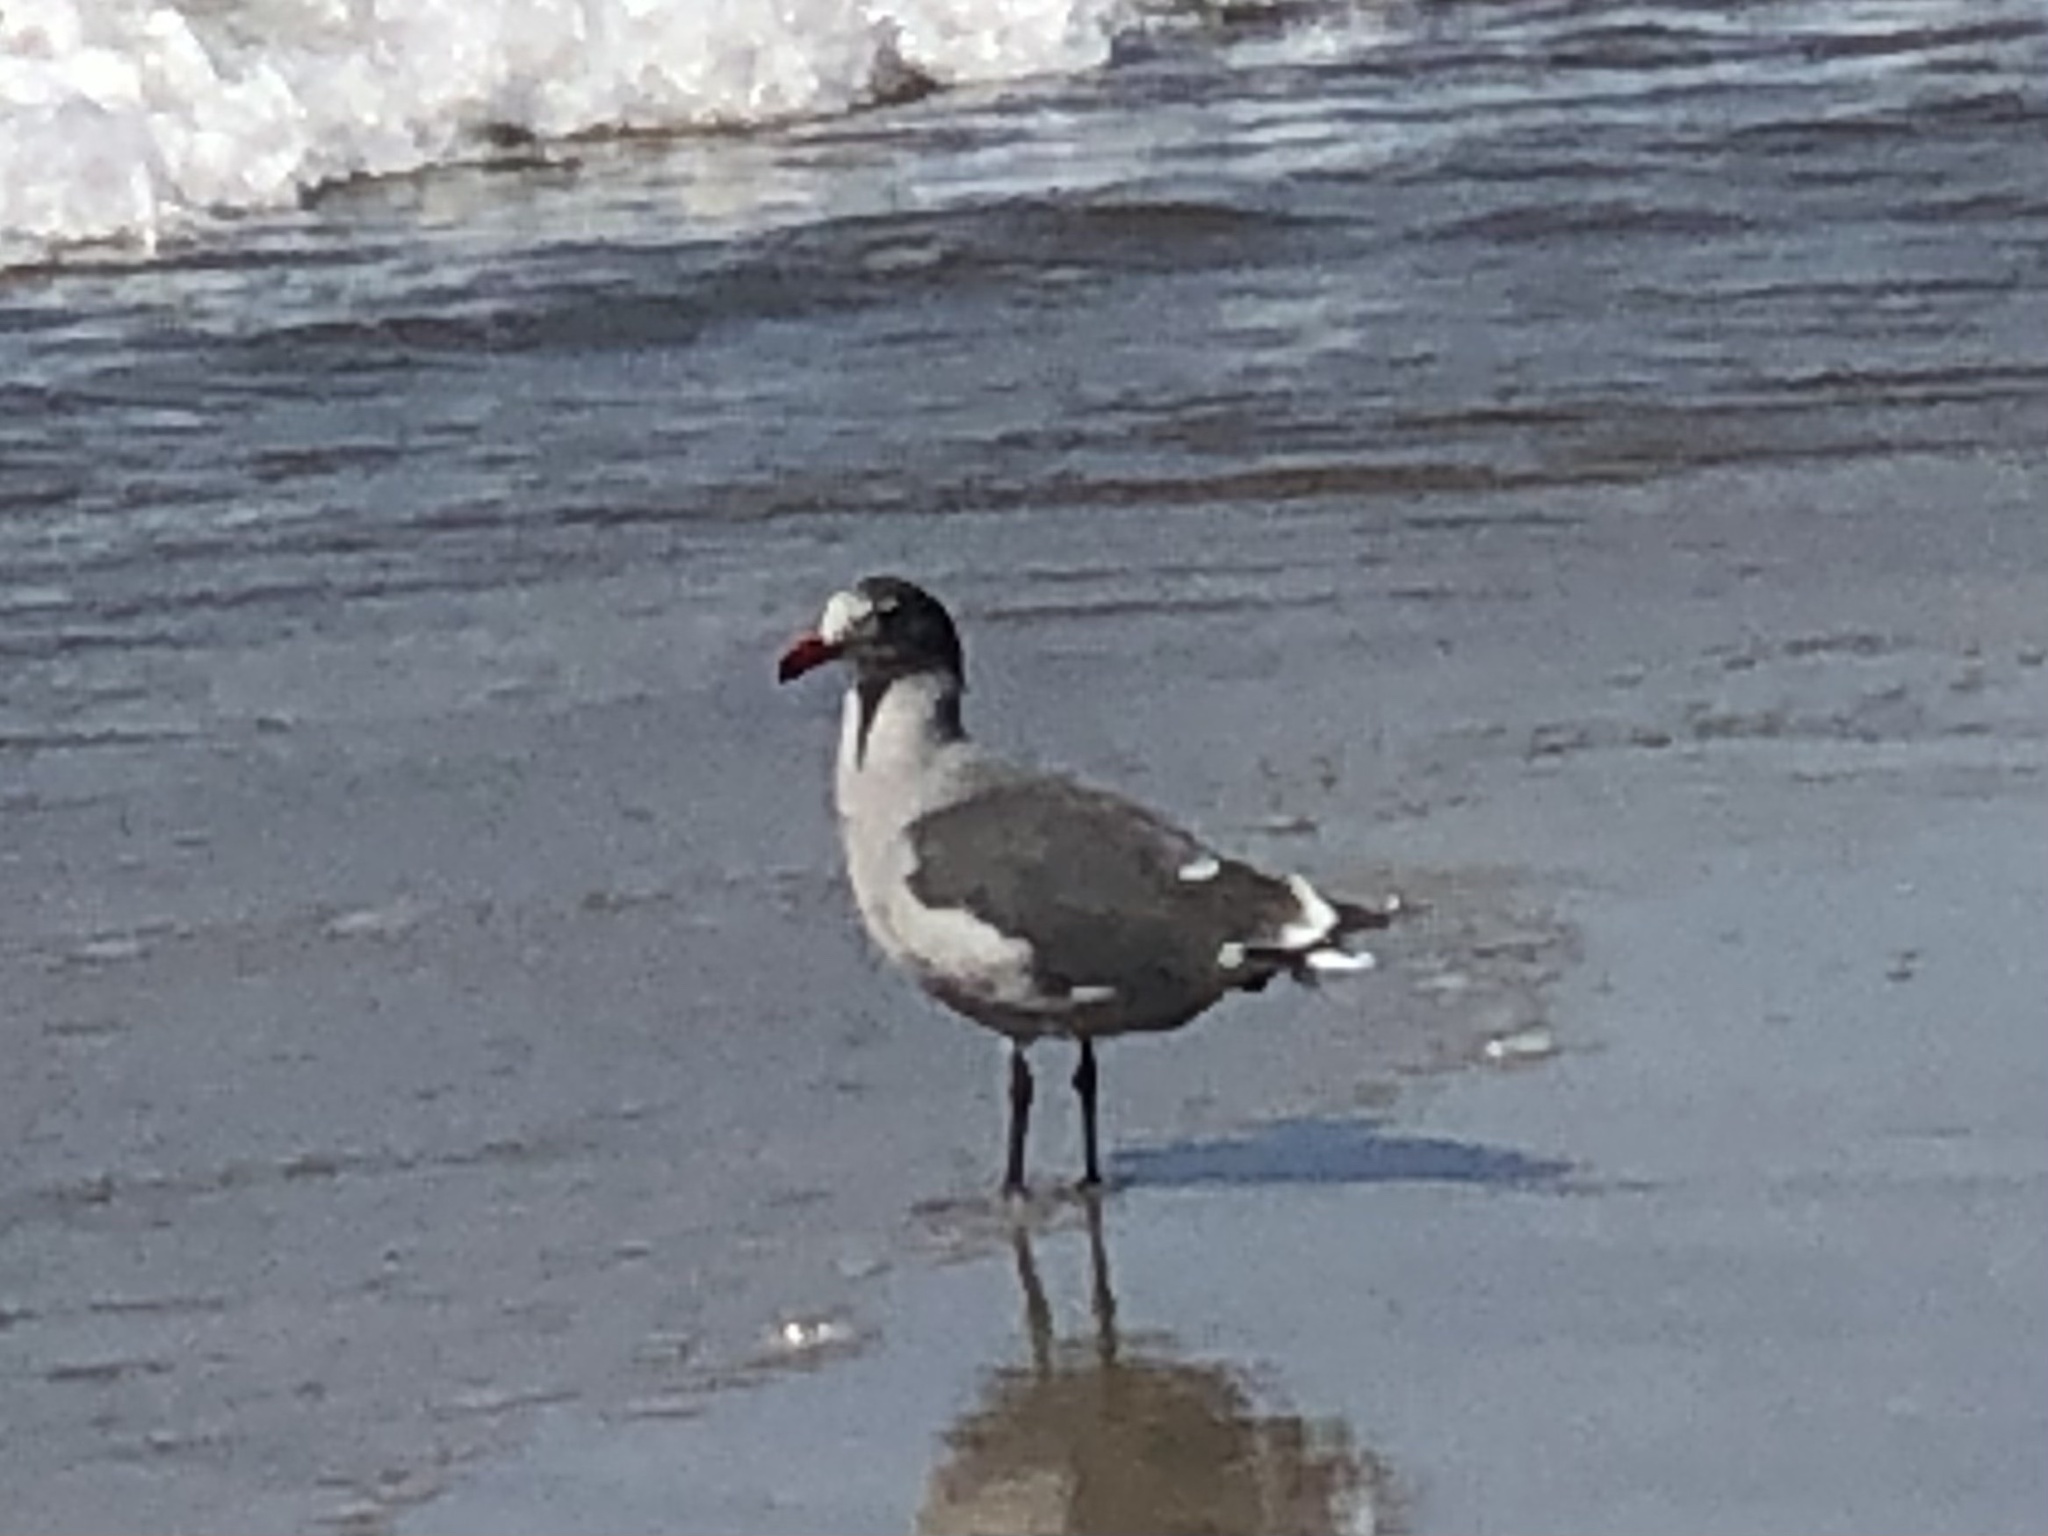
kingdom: Animalia
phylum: Chordata
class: Aves
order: Charadriiformes
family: Laridae
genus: Larus
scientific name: Larus heermanni
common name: Heermann's gull
